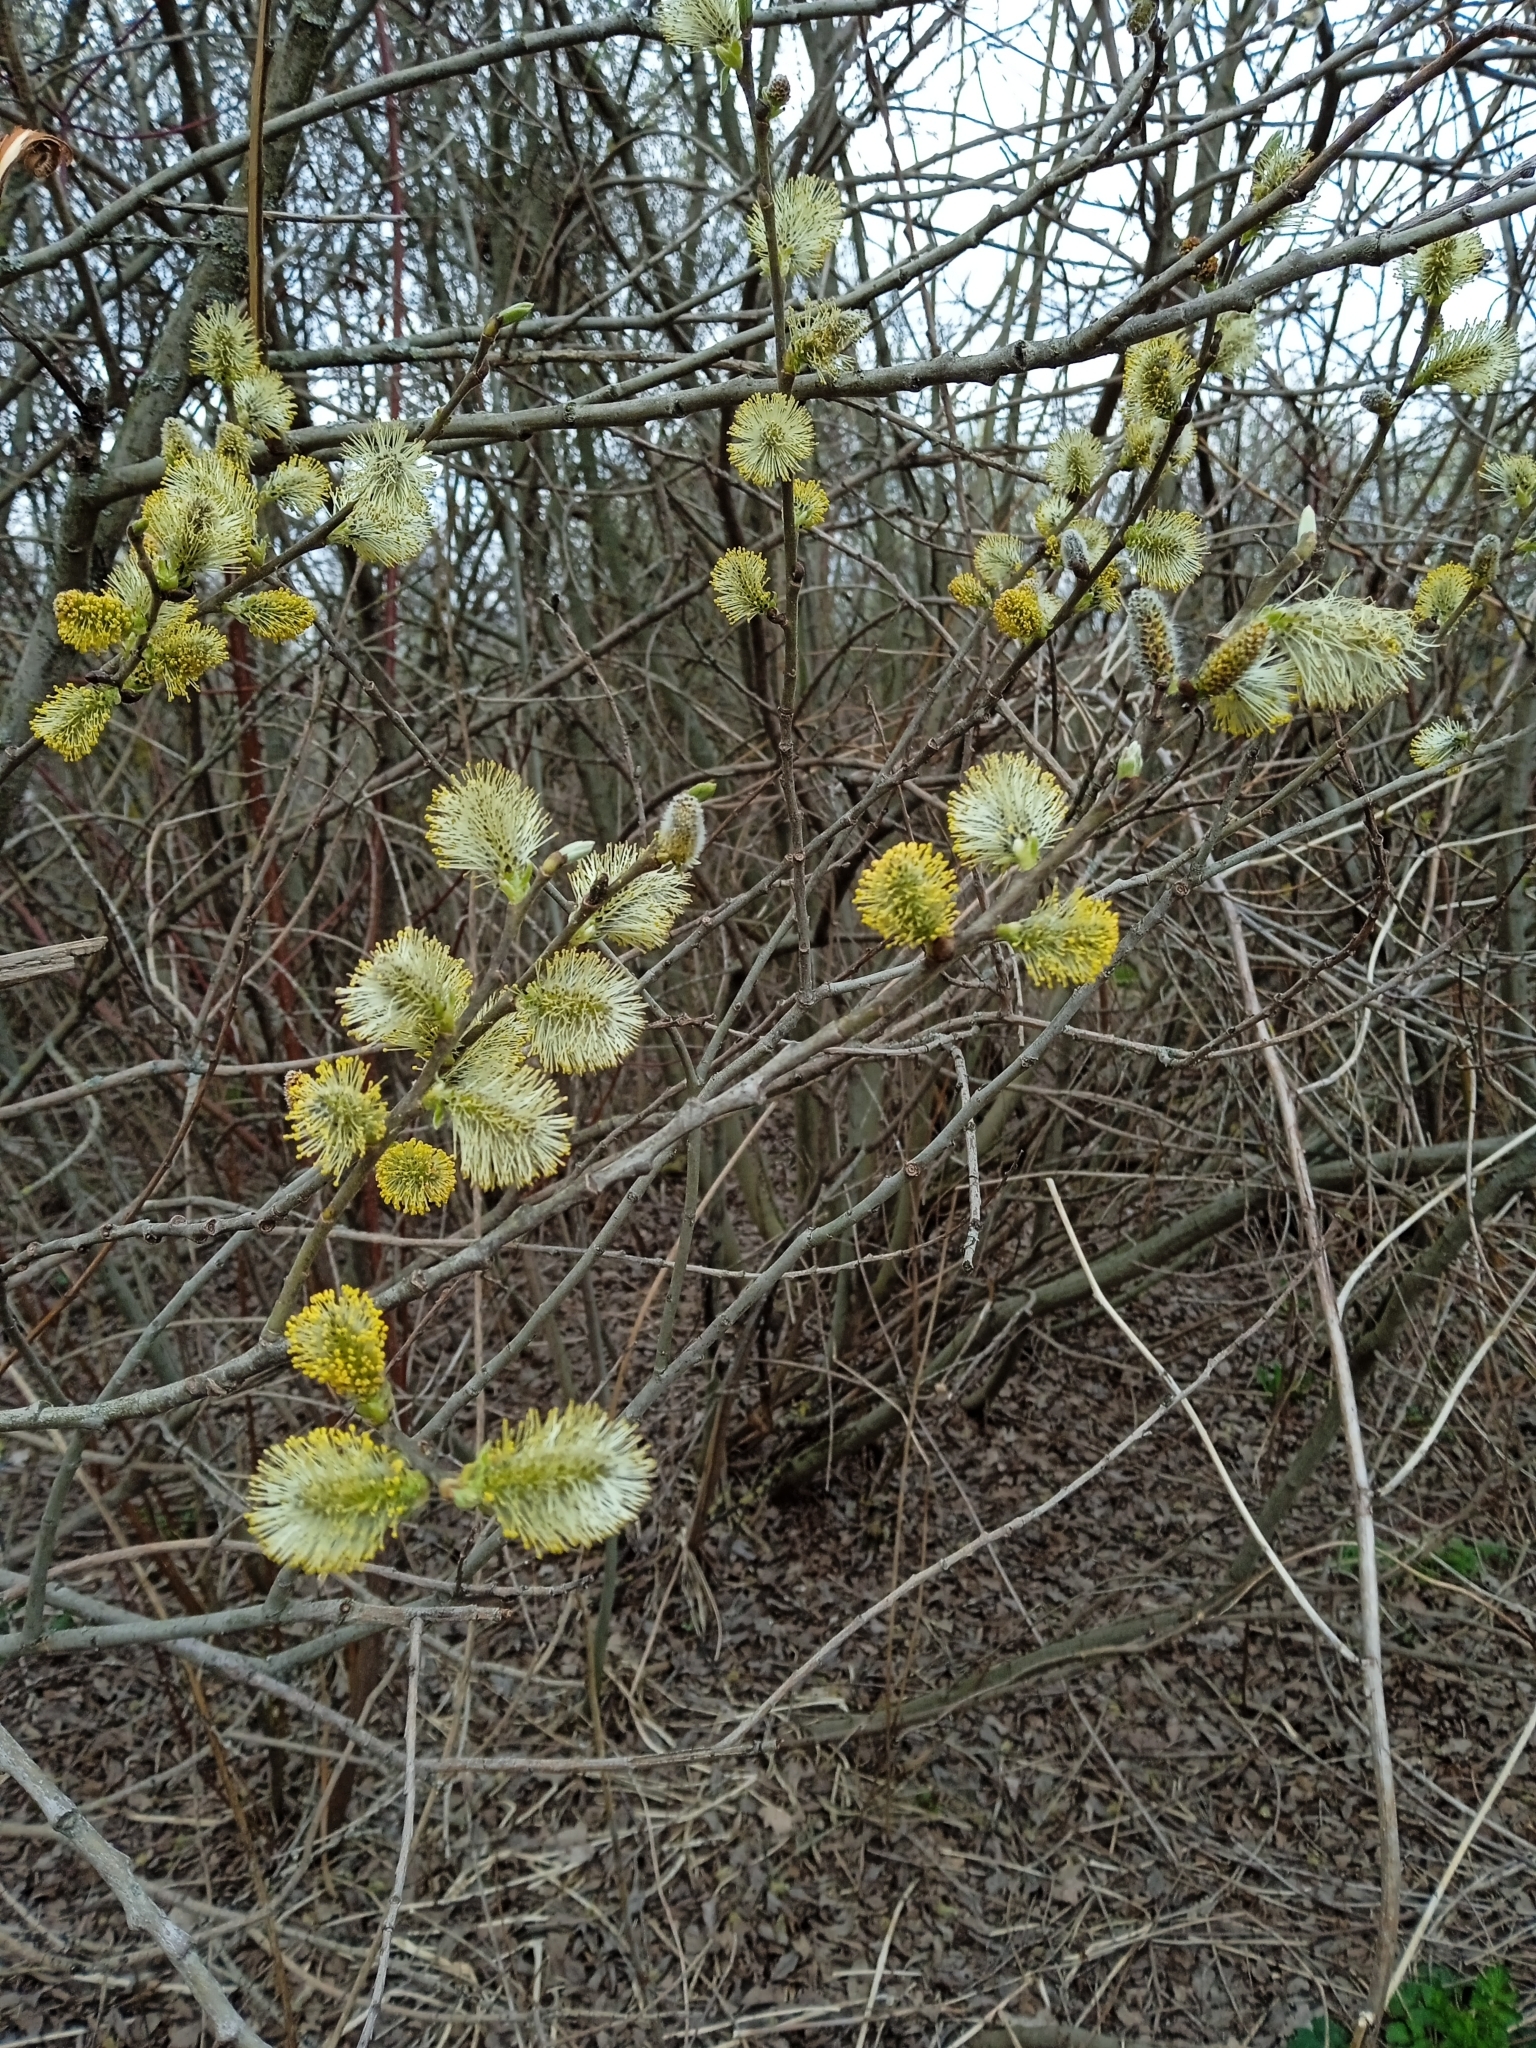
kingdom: Plantae
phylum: Tracheophyta
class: Magnoliopsida
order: Malpighiales
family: Salicaceae
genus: Salix
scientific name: Salix caprea
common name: Goat willow
